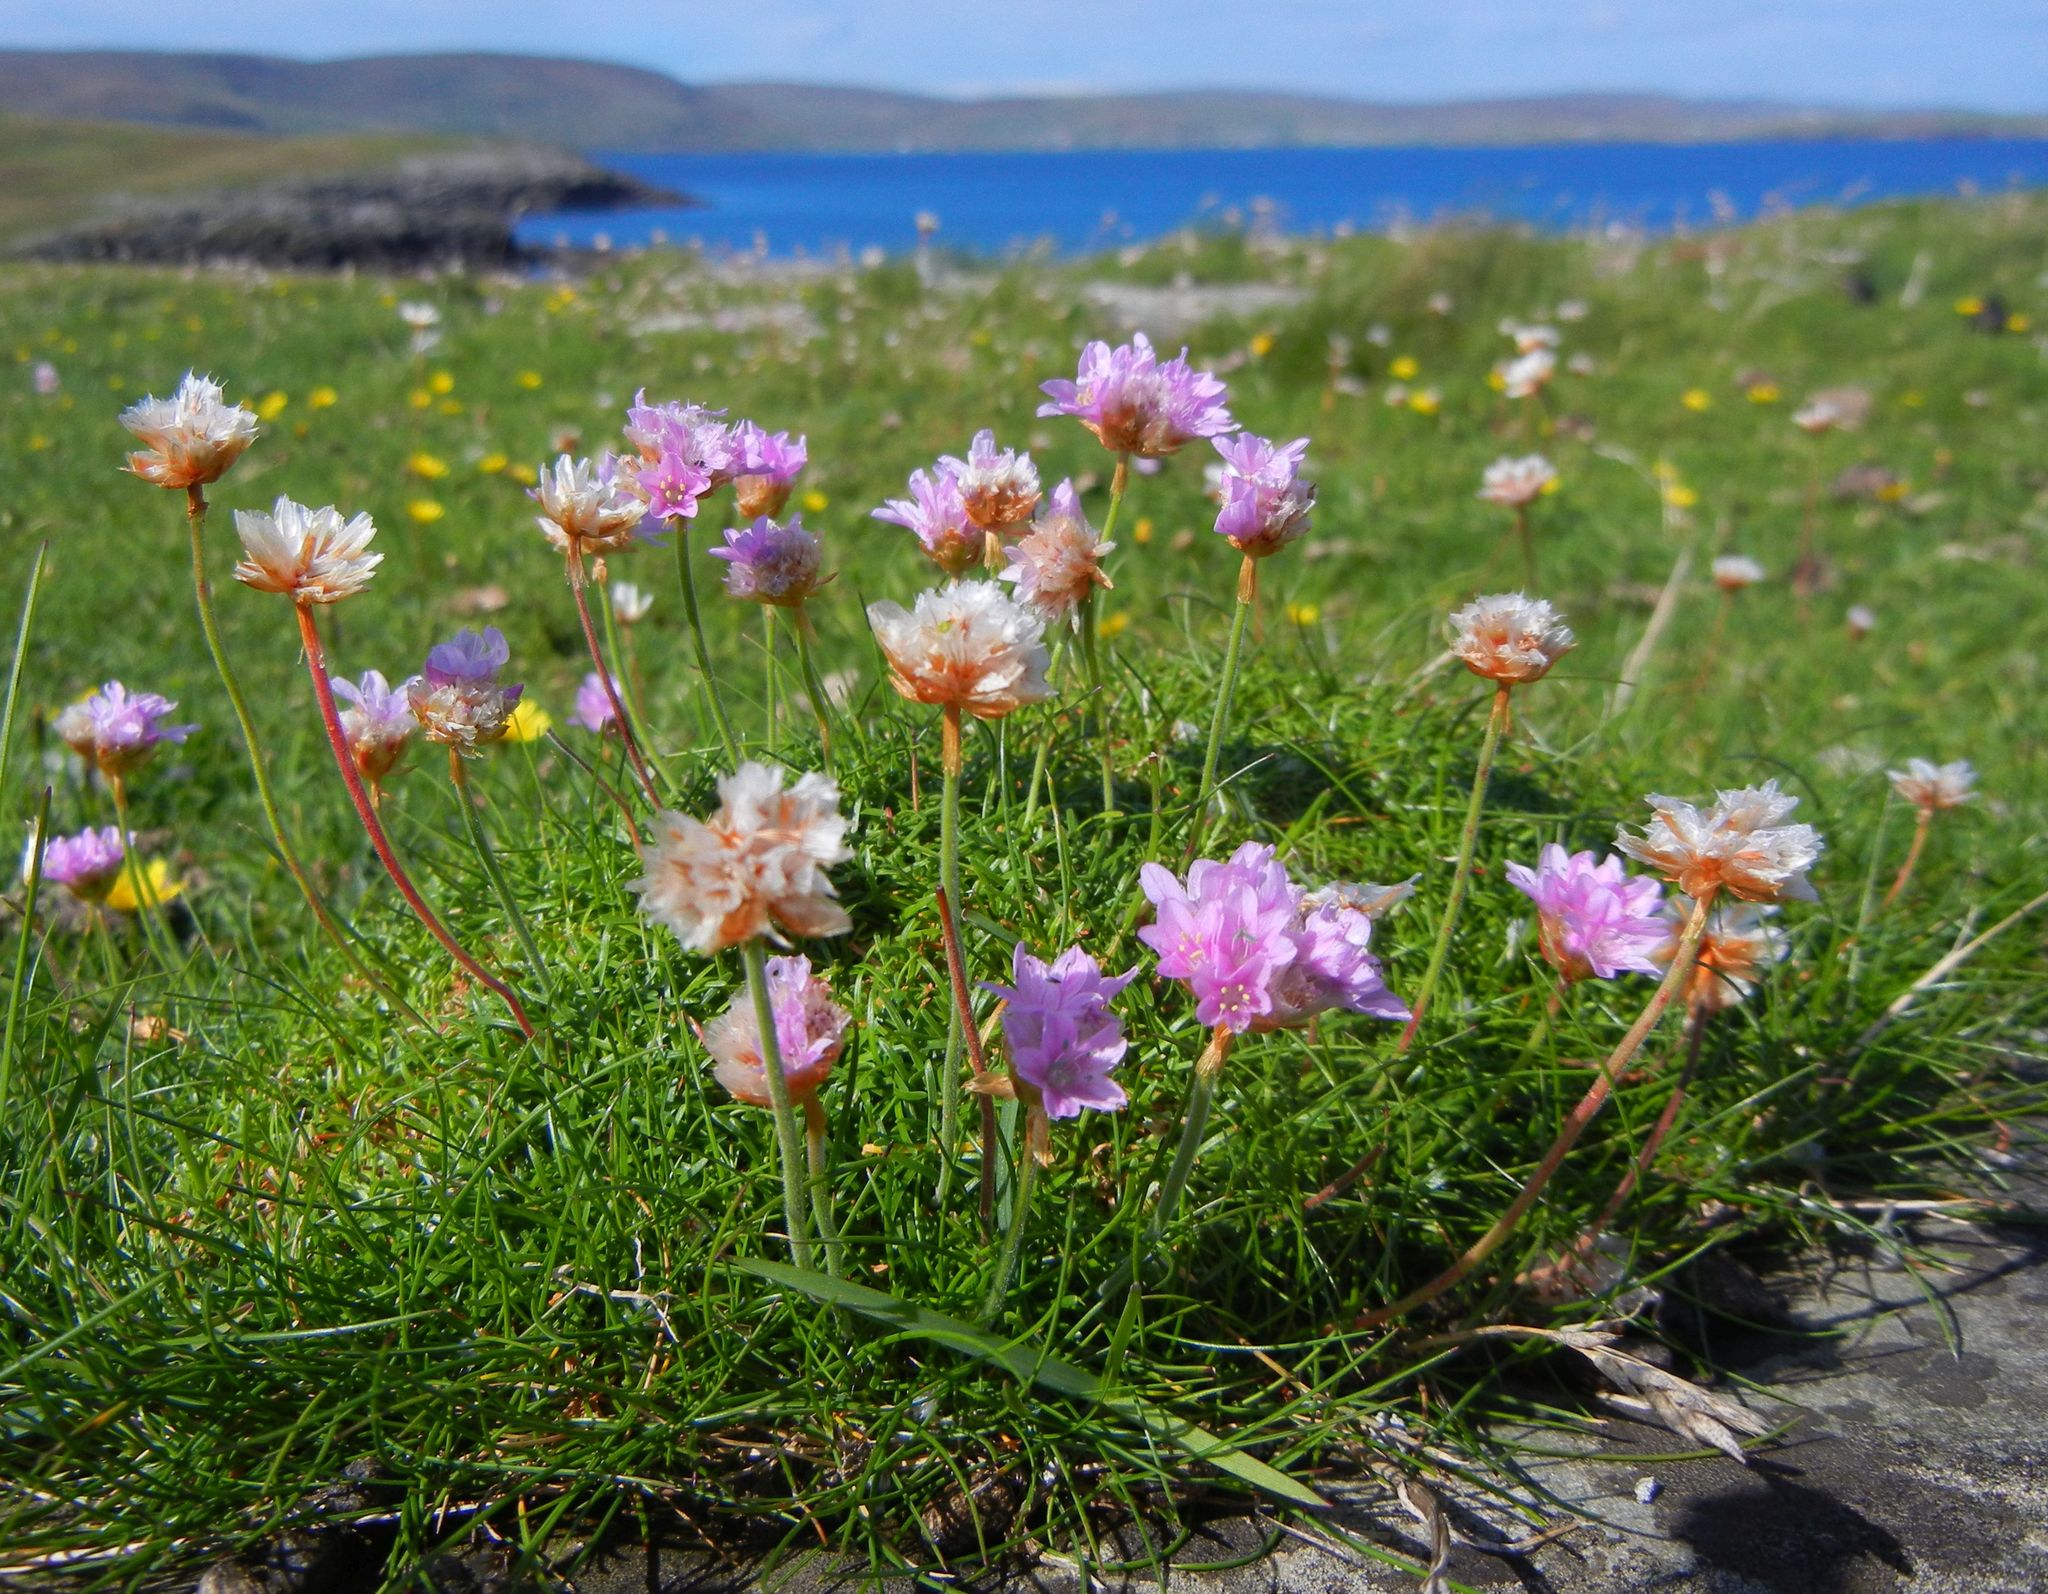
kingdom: Plantae
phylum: Tracheophyta
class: Magnoliopsida
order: Caryophyllales
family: Plumbaginaceae
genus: Armeria
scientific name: Armeria maritima
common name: Thrift
